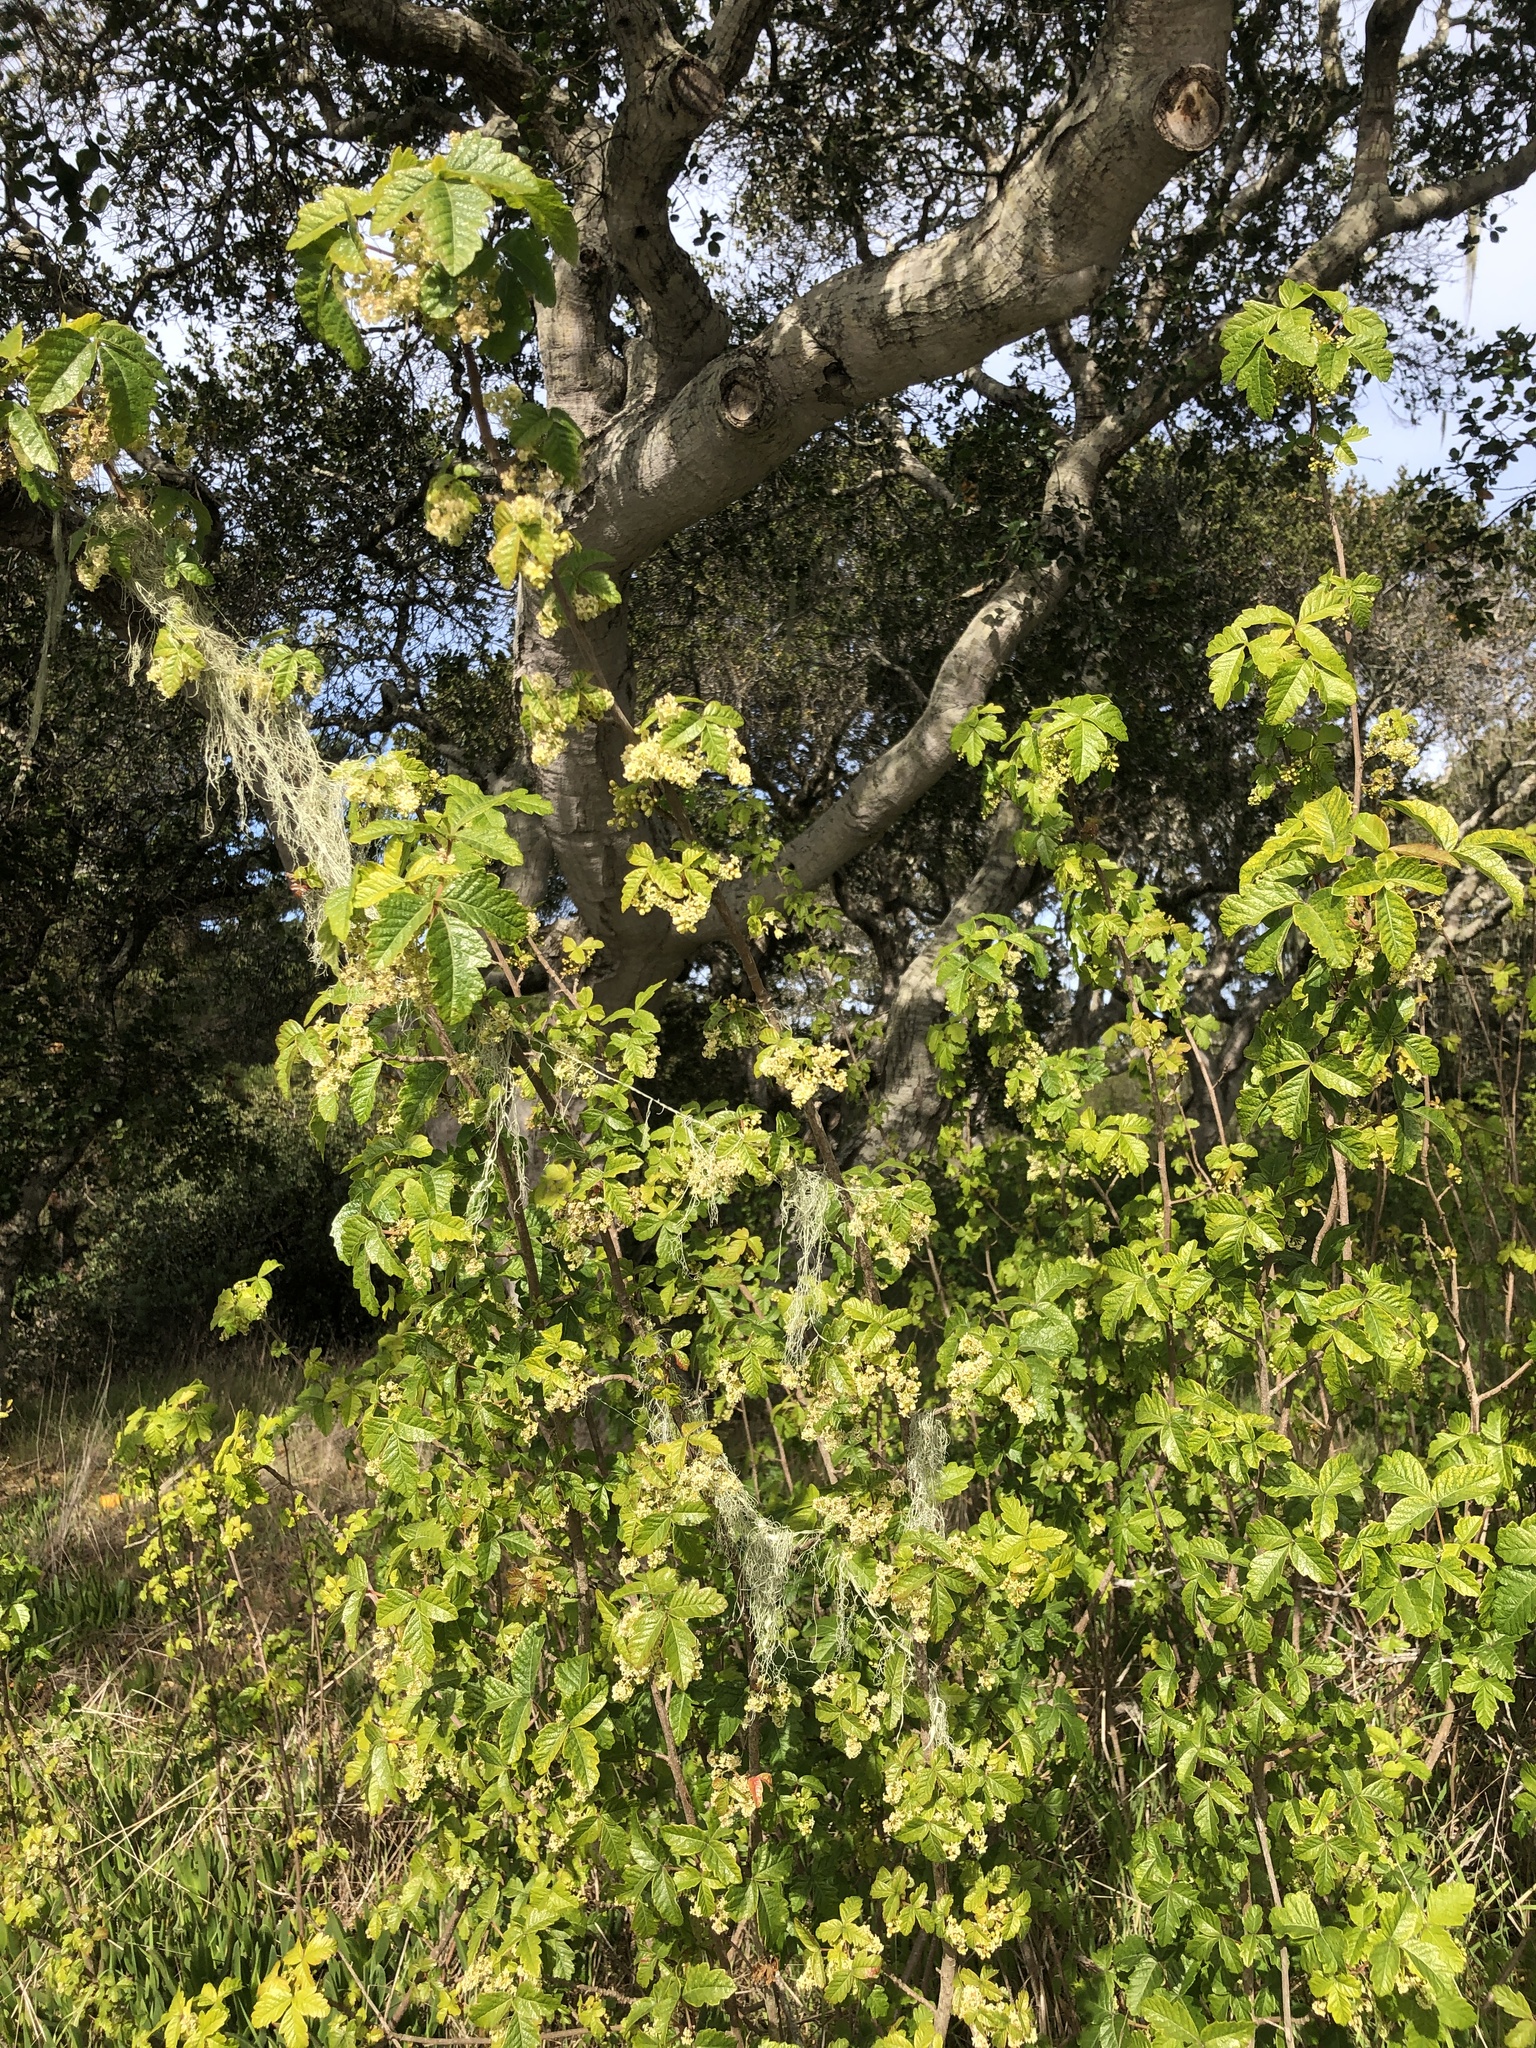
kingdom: Plantae
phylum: Tracheophyta
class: Magnoliopsida
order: Sapindales
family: Anacardiaceae
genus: Toxicodendron
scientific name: Toxicodendron diversilobum
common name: Pacific poison-oak
